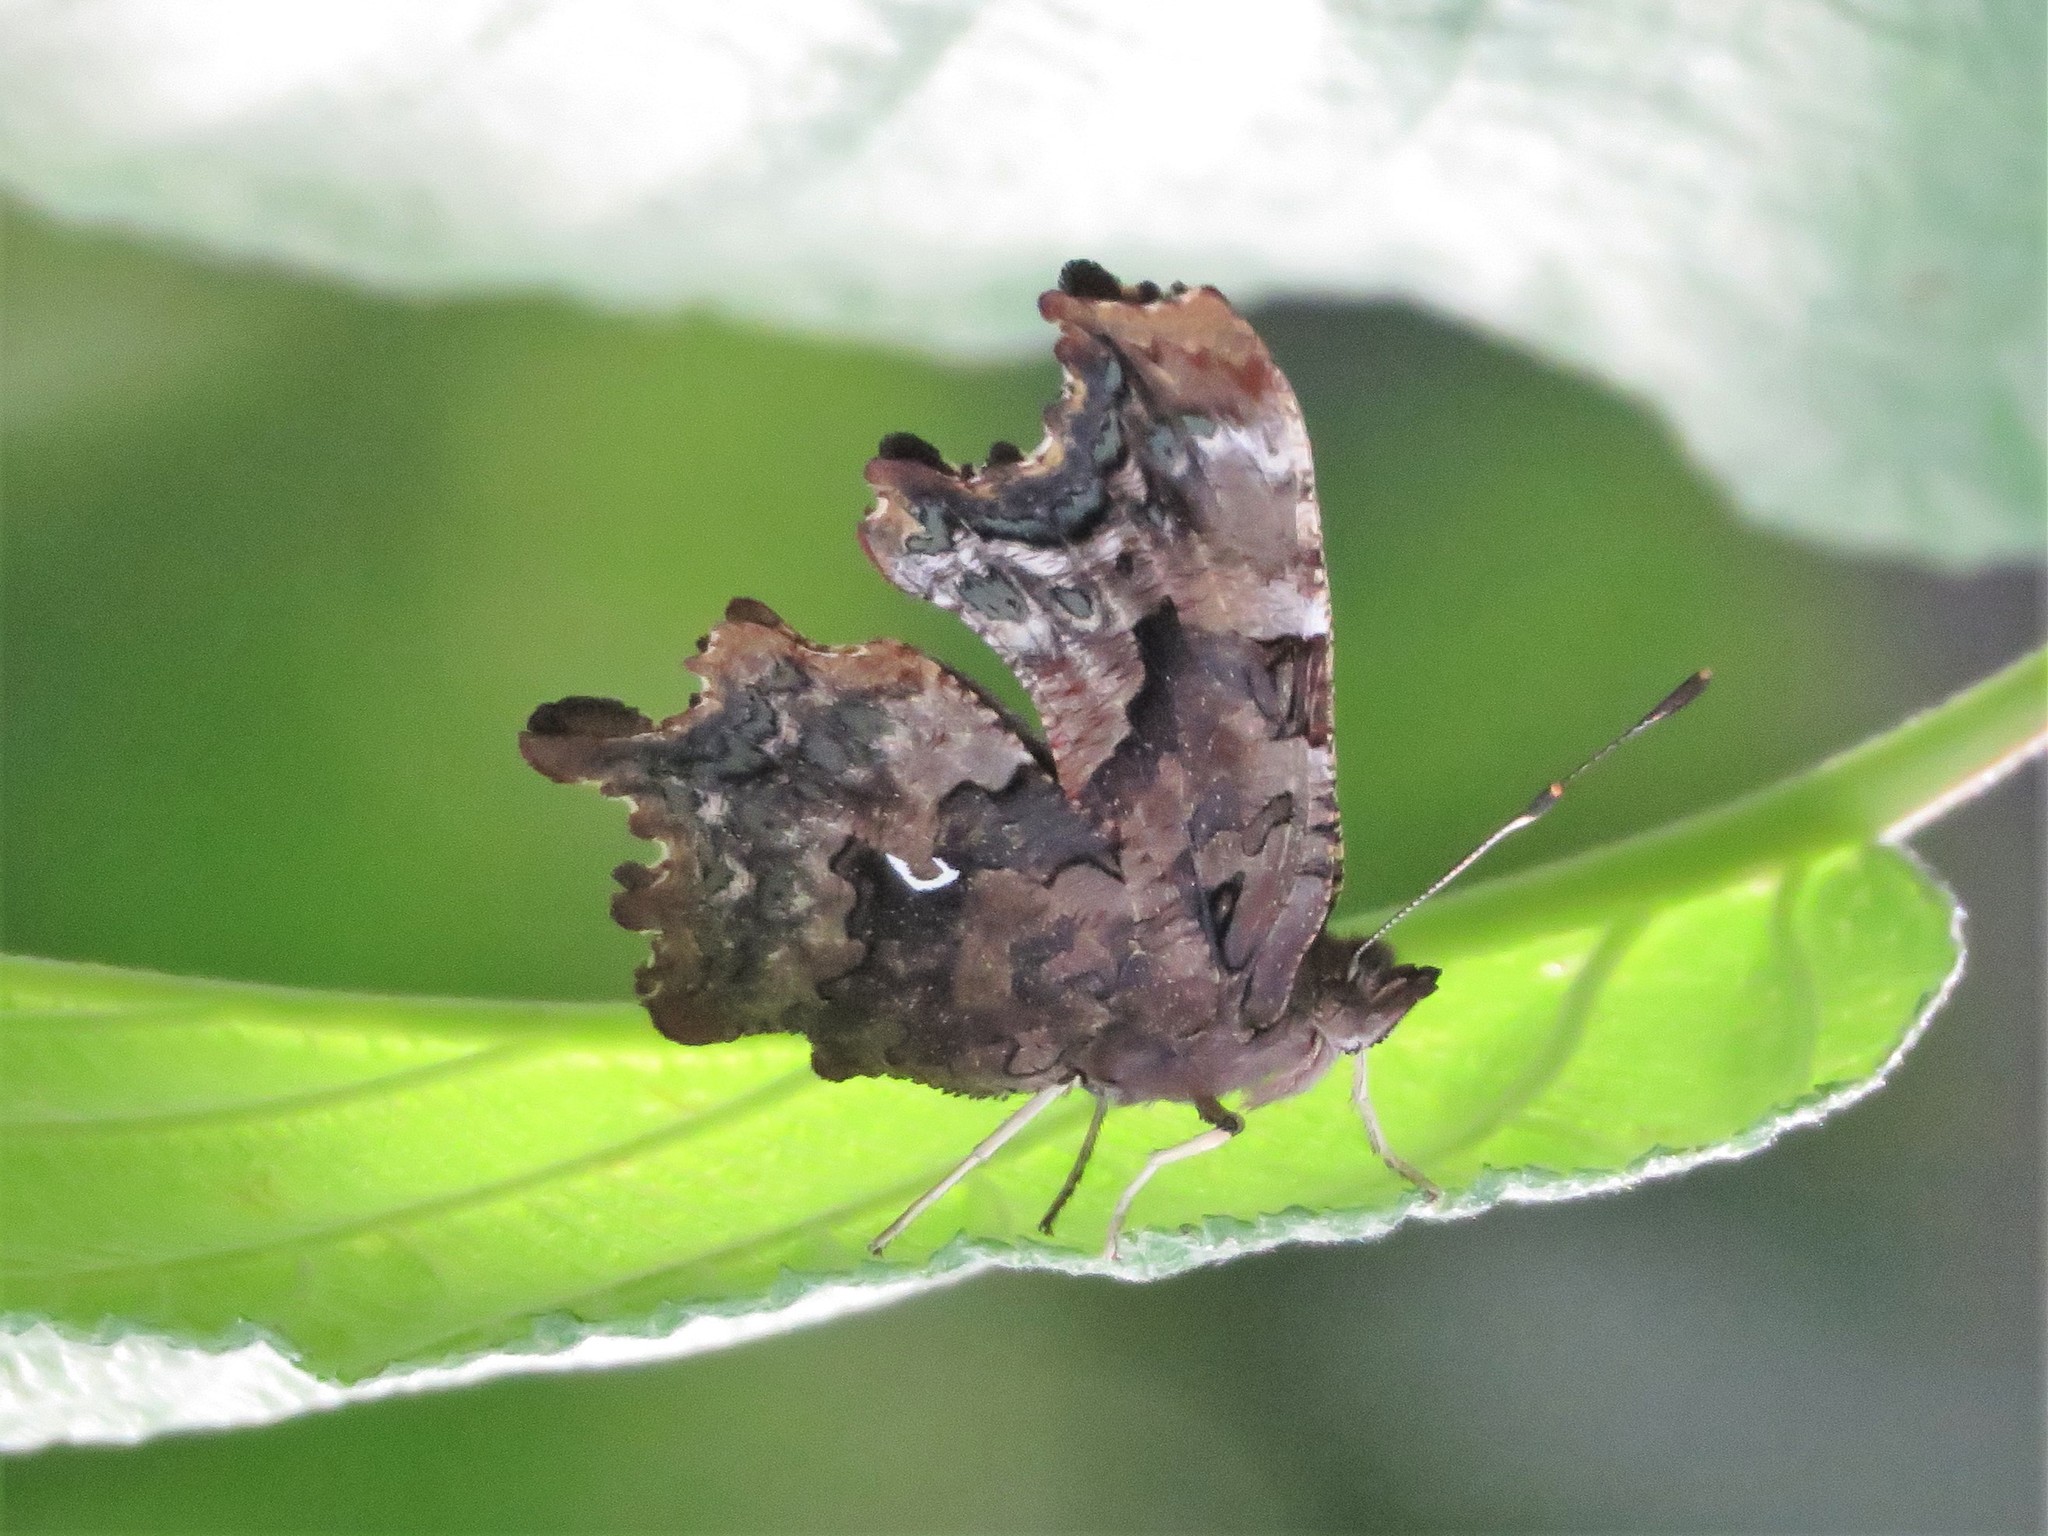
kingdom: Animalia
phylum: Arthropoda
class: Insecta
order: Lepidoptera
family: Nymphalidae
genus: Polygonia
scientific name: Polygonia faunus
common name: Green comma
